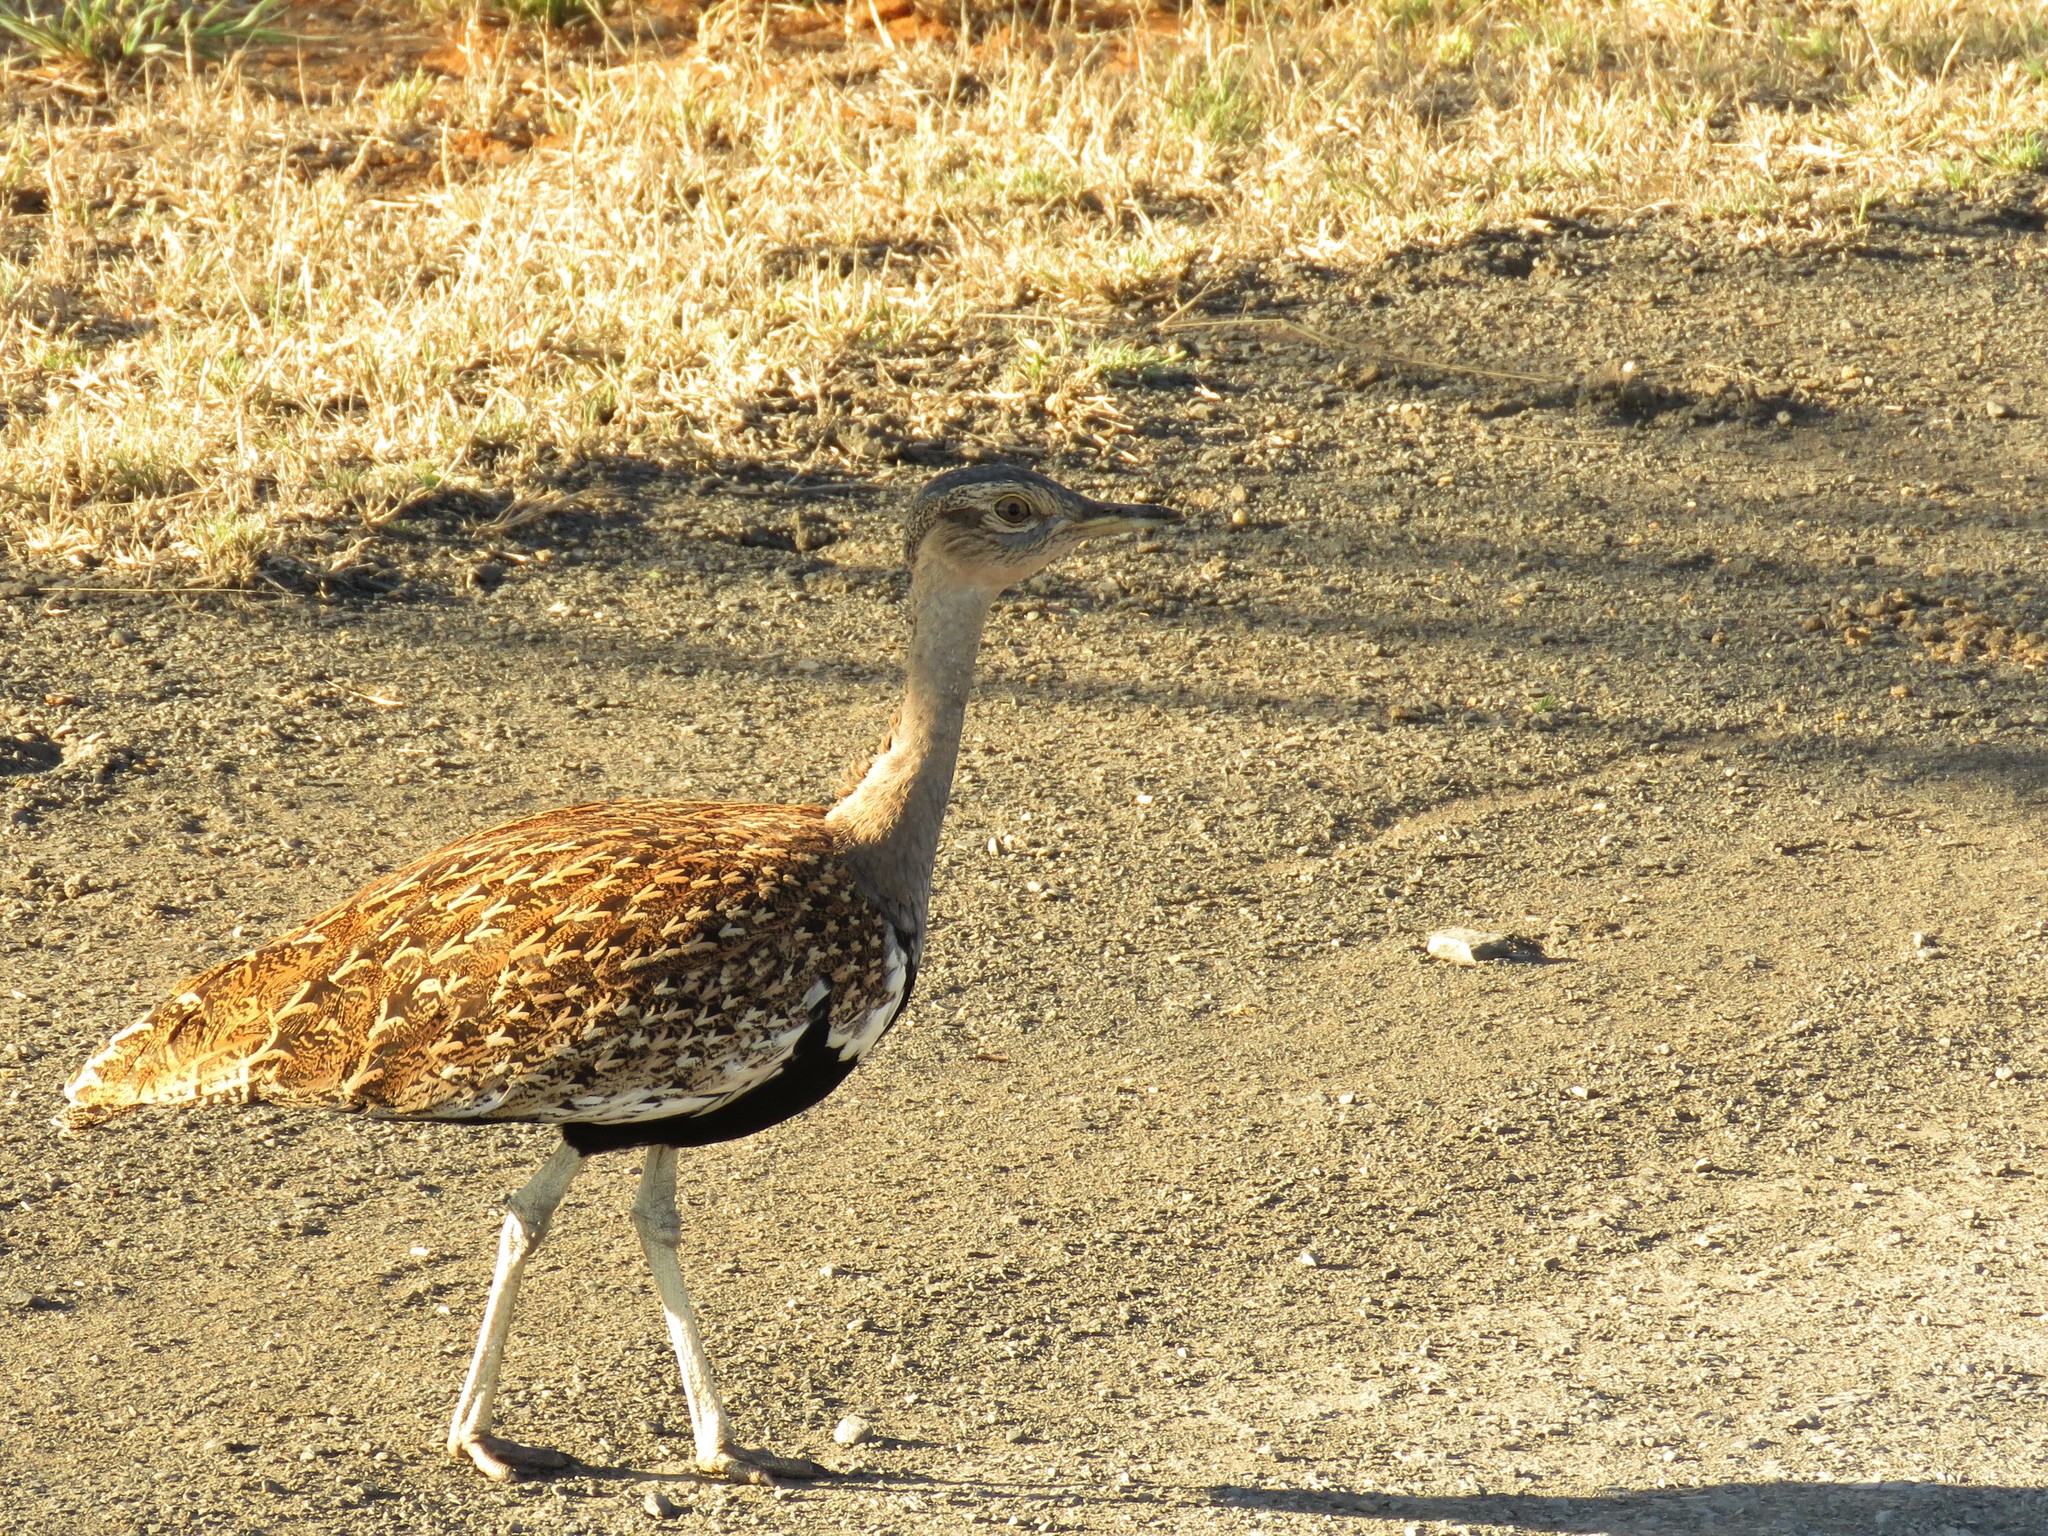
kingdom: Animalia
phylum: Chordata
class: Aves
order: Otidiformes
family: Otididae
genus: Lophotis
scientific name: Lophotis ruficrista
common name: Red-crested korhaan
